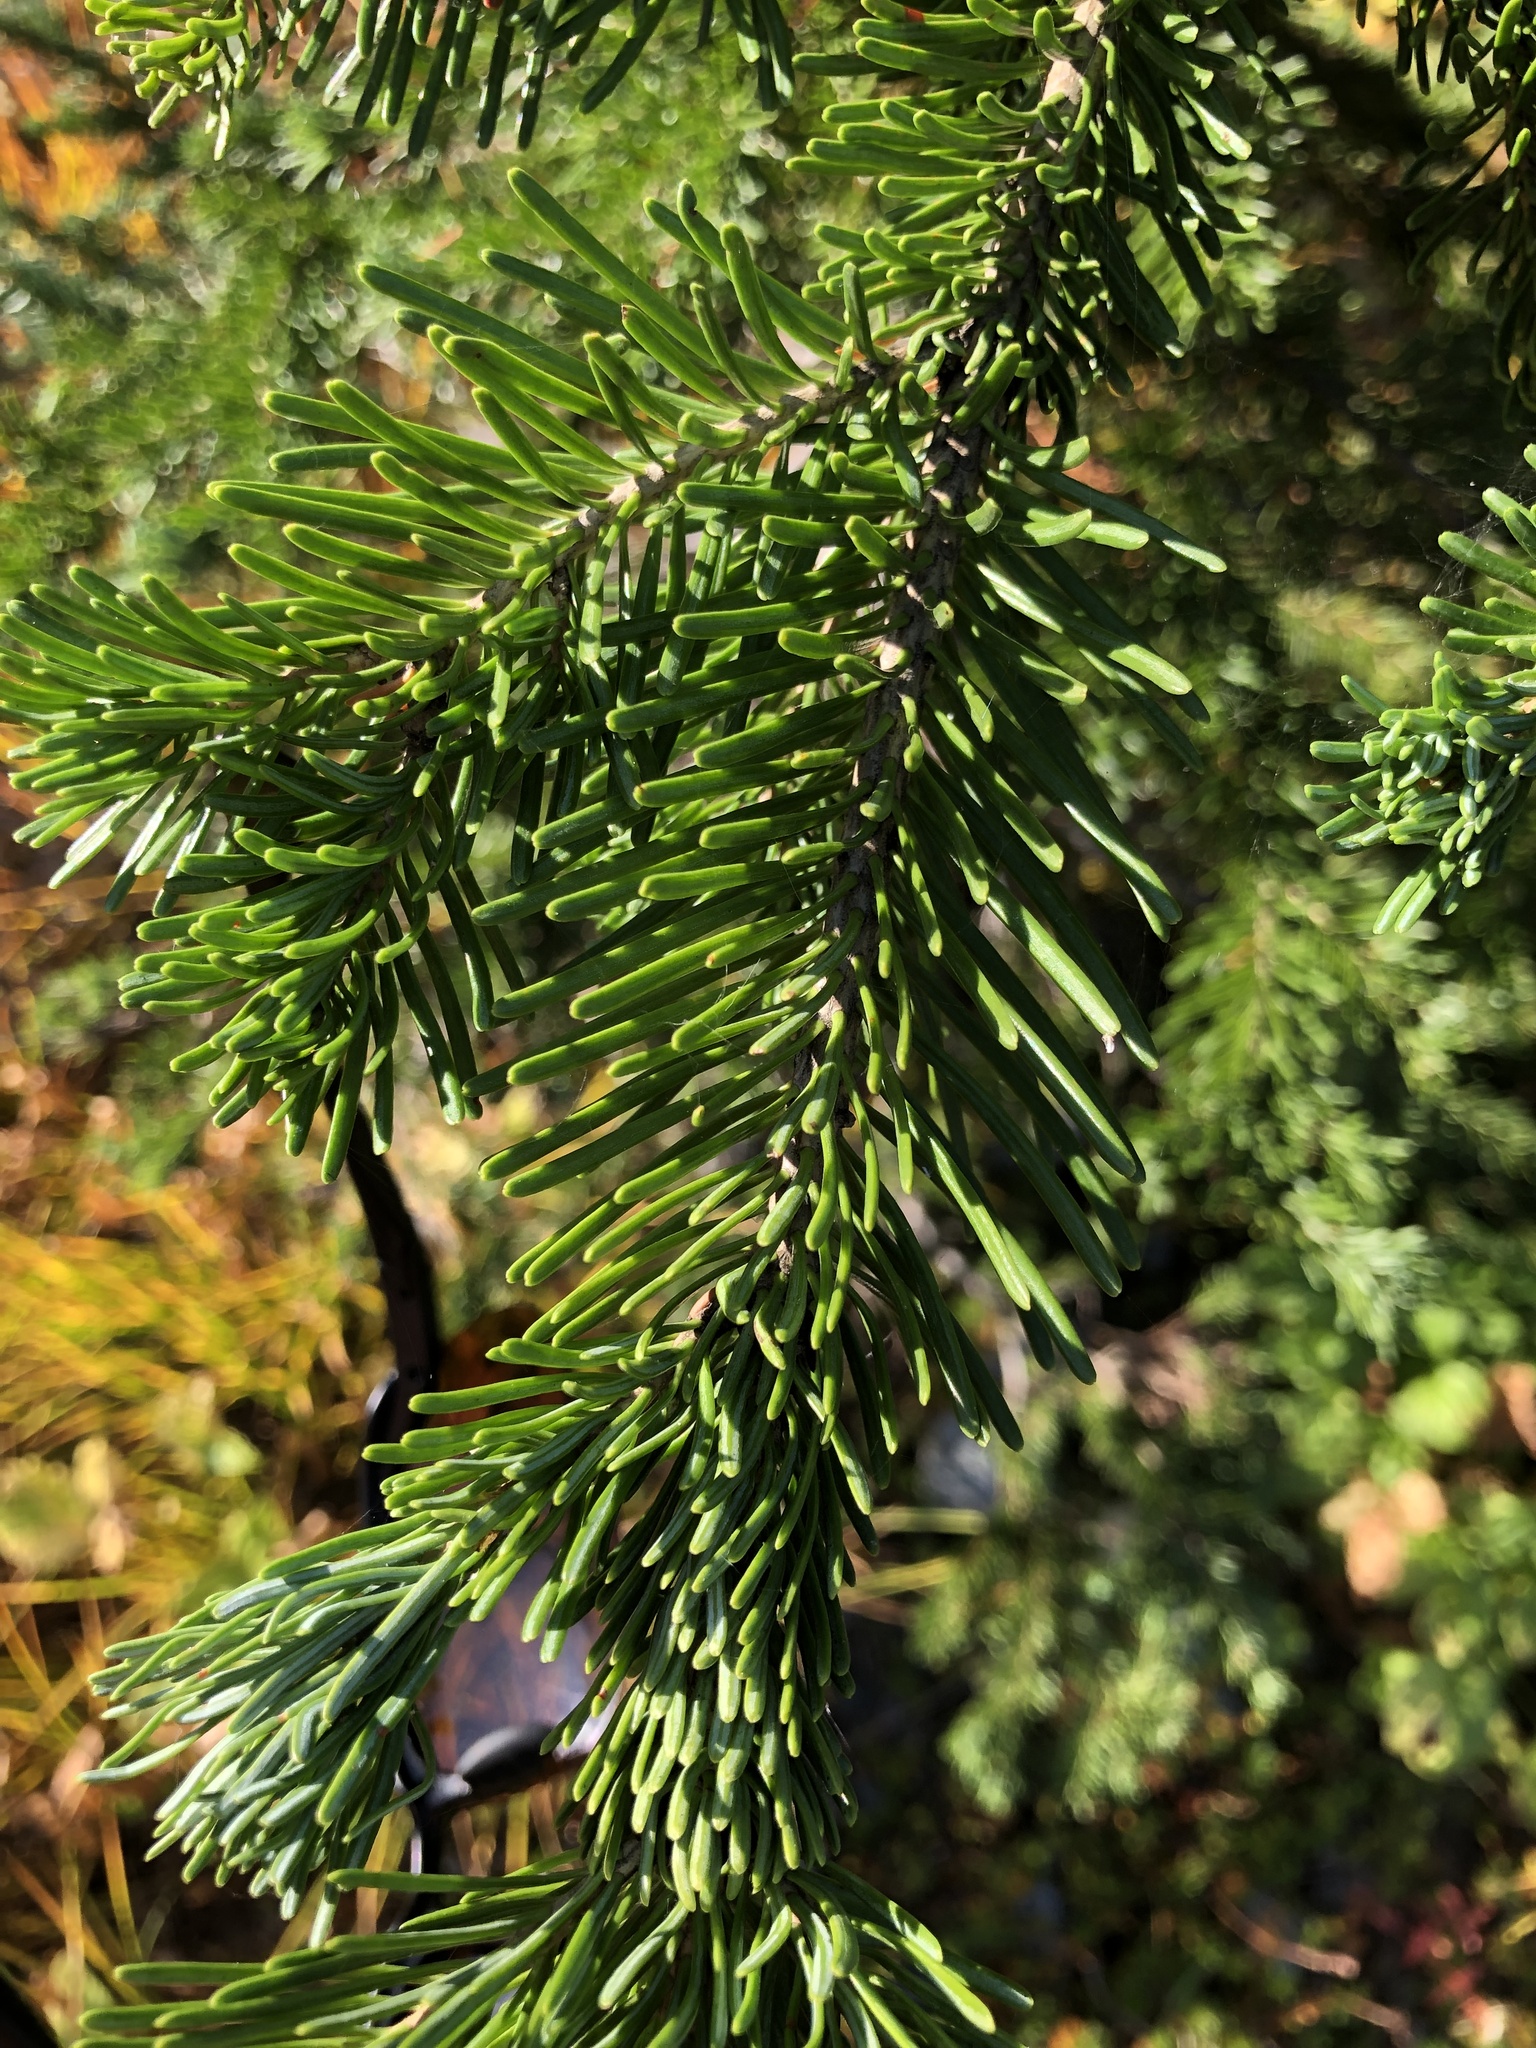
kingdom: Plantae
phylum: Tracheophyta
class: Pinopsida
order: Pinales
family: Pinaceae
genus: Abies
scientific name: Abies lasiocarpa
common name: Subalpine fir
